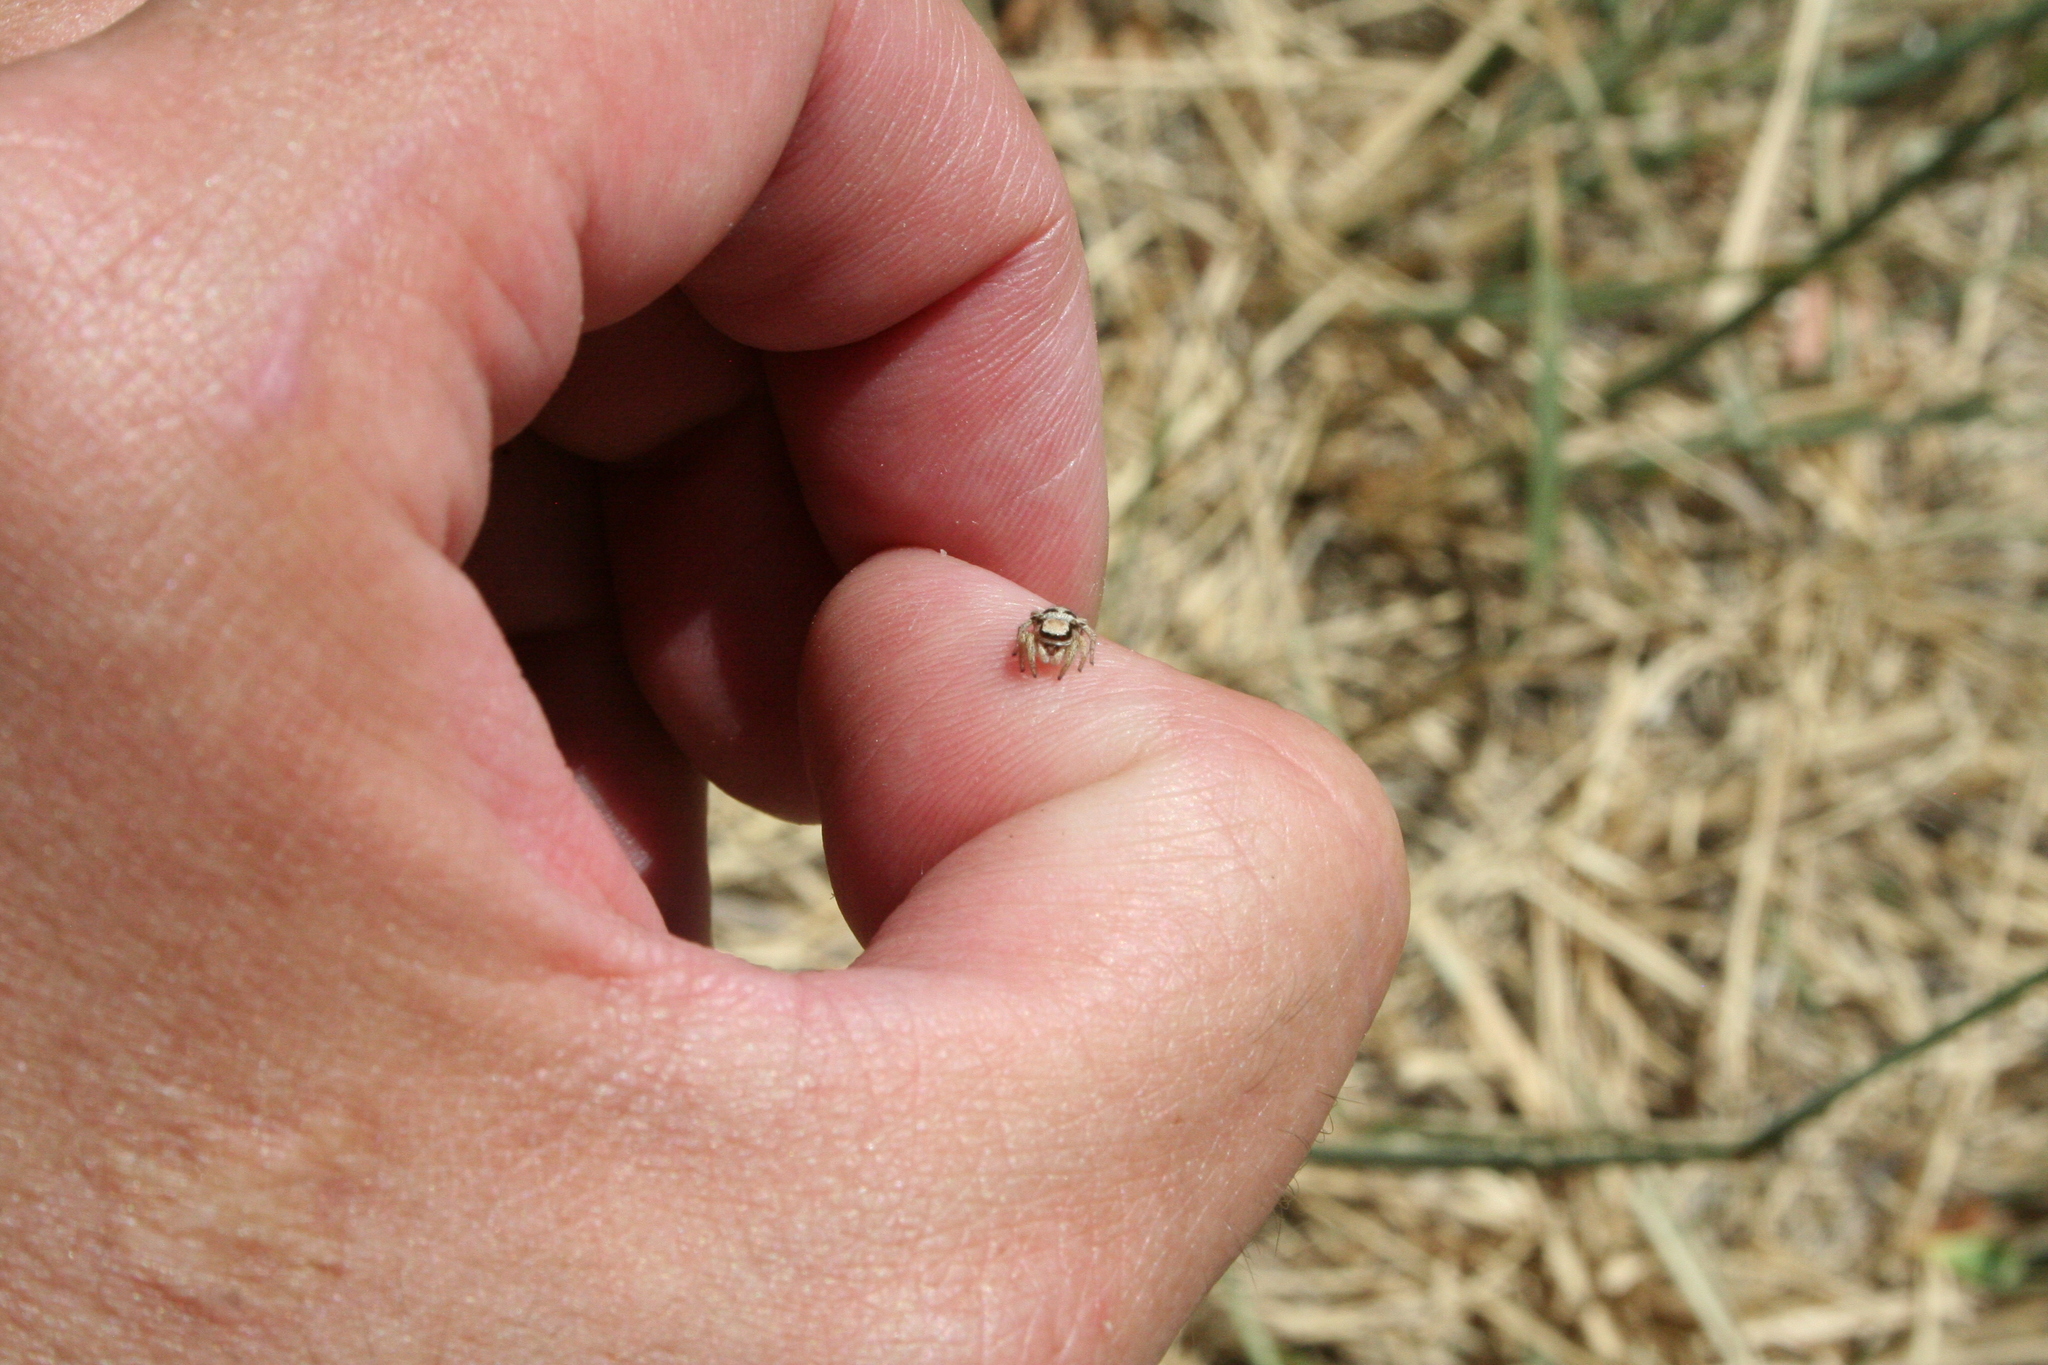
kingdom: Animalia
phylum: Arthropoda
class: Arachnida
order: Araneae
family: Salticidae
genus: Habronattus
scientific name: Habronattus festus
